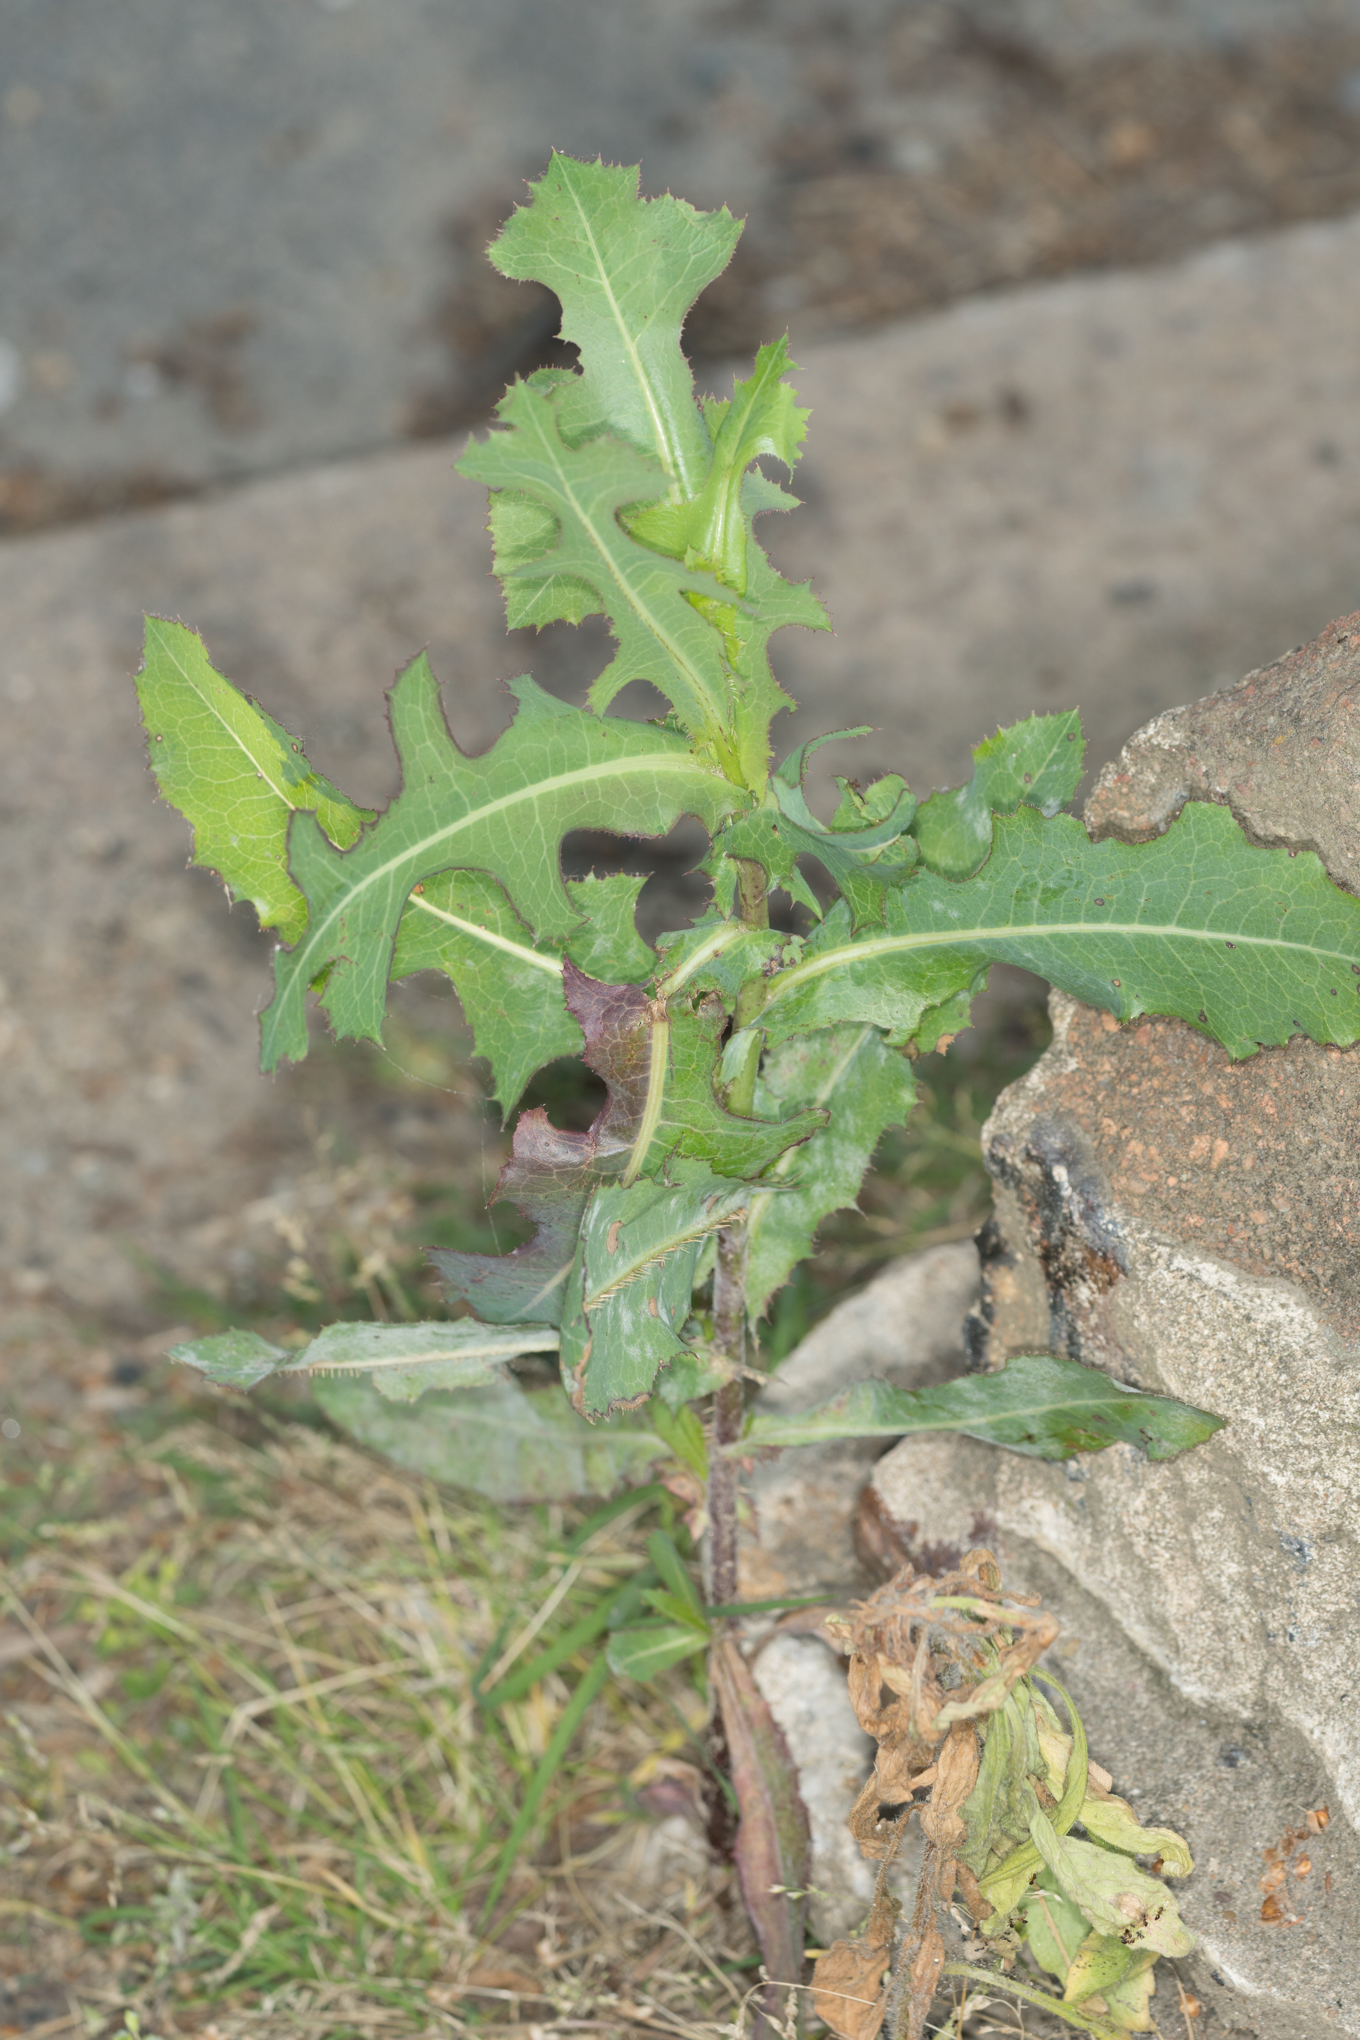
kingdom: Plantae
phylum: Tracheophyta
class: Magnoliopsida
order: Asterales
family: Asteraceae
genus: Lactuca
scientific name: Lactuca serriola
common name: Prickly lettuce
